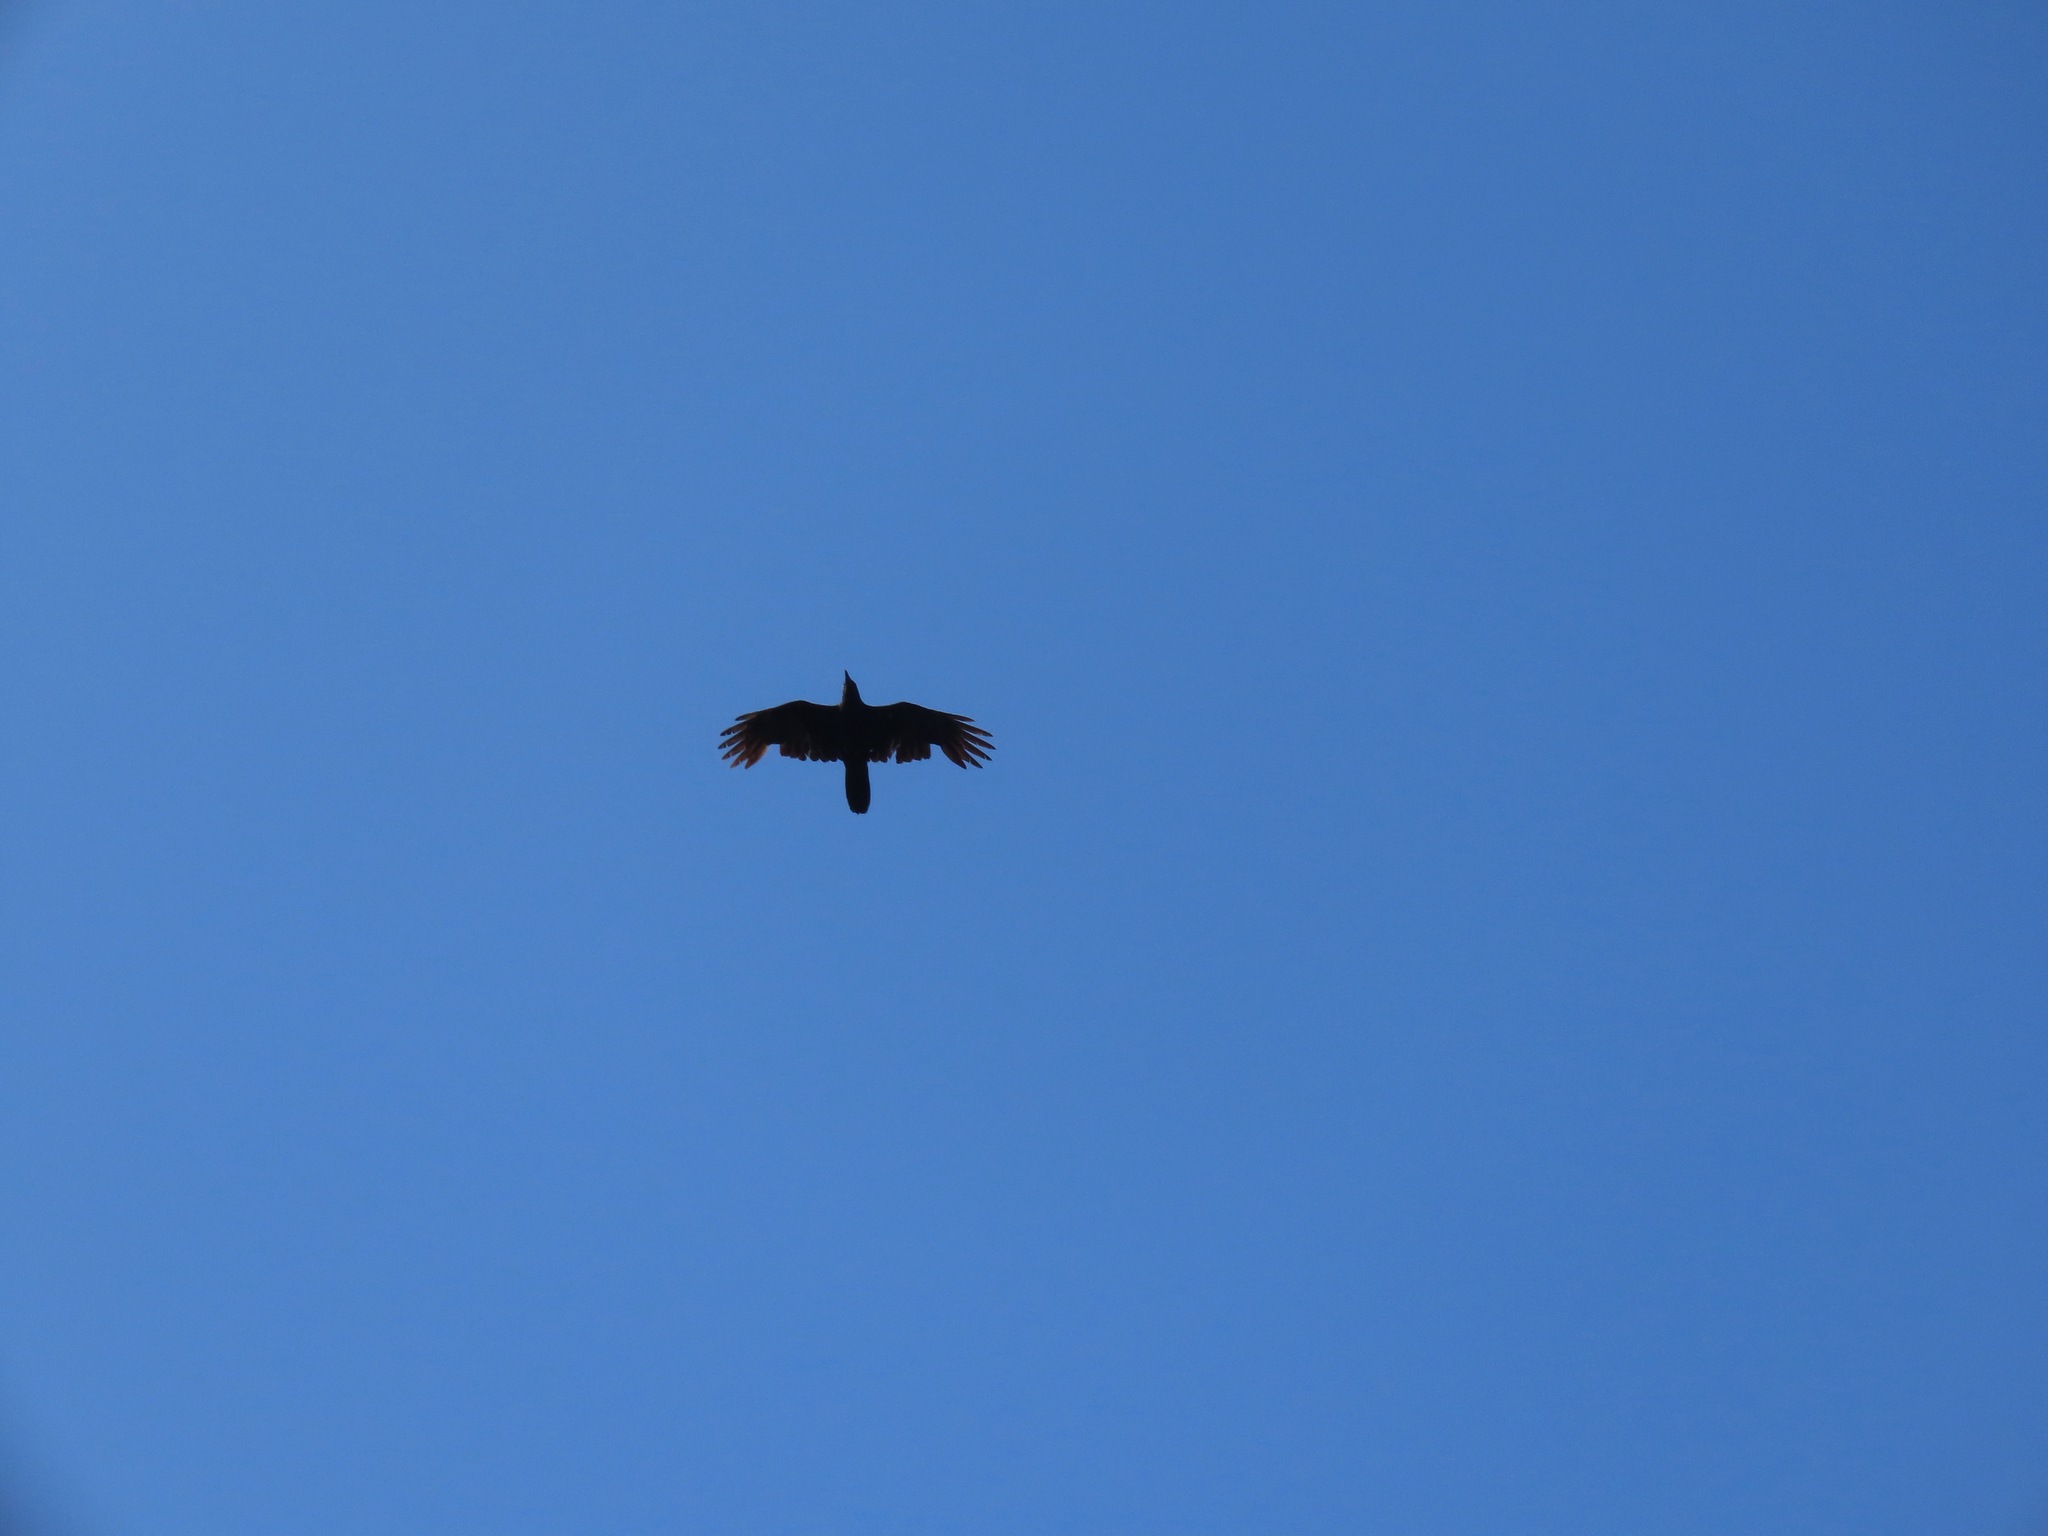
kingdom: Animalia
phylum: Chordata
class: Aves
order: Passeriformes
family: Corvidae
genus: Corvus
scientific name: Corvus corax
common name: Common raven
